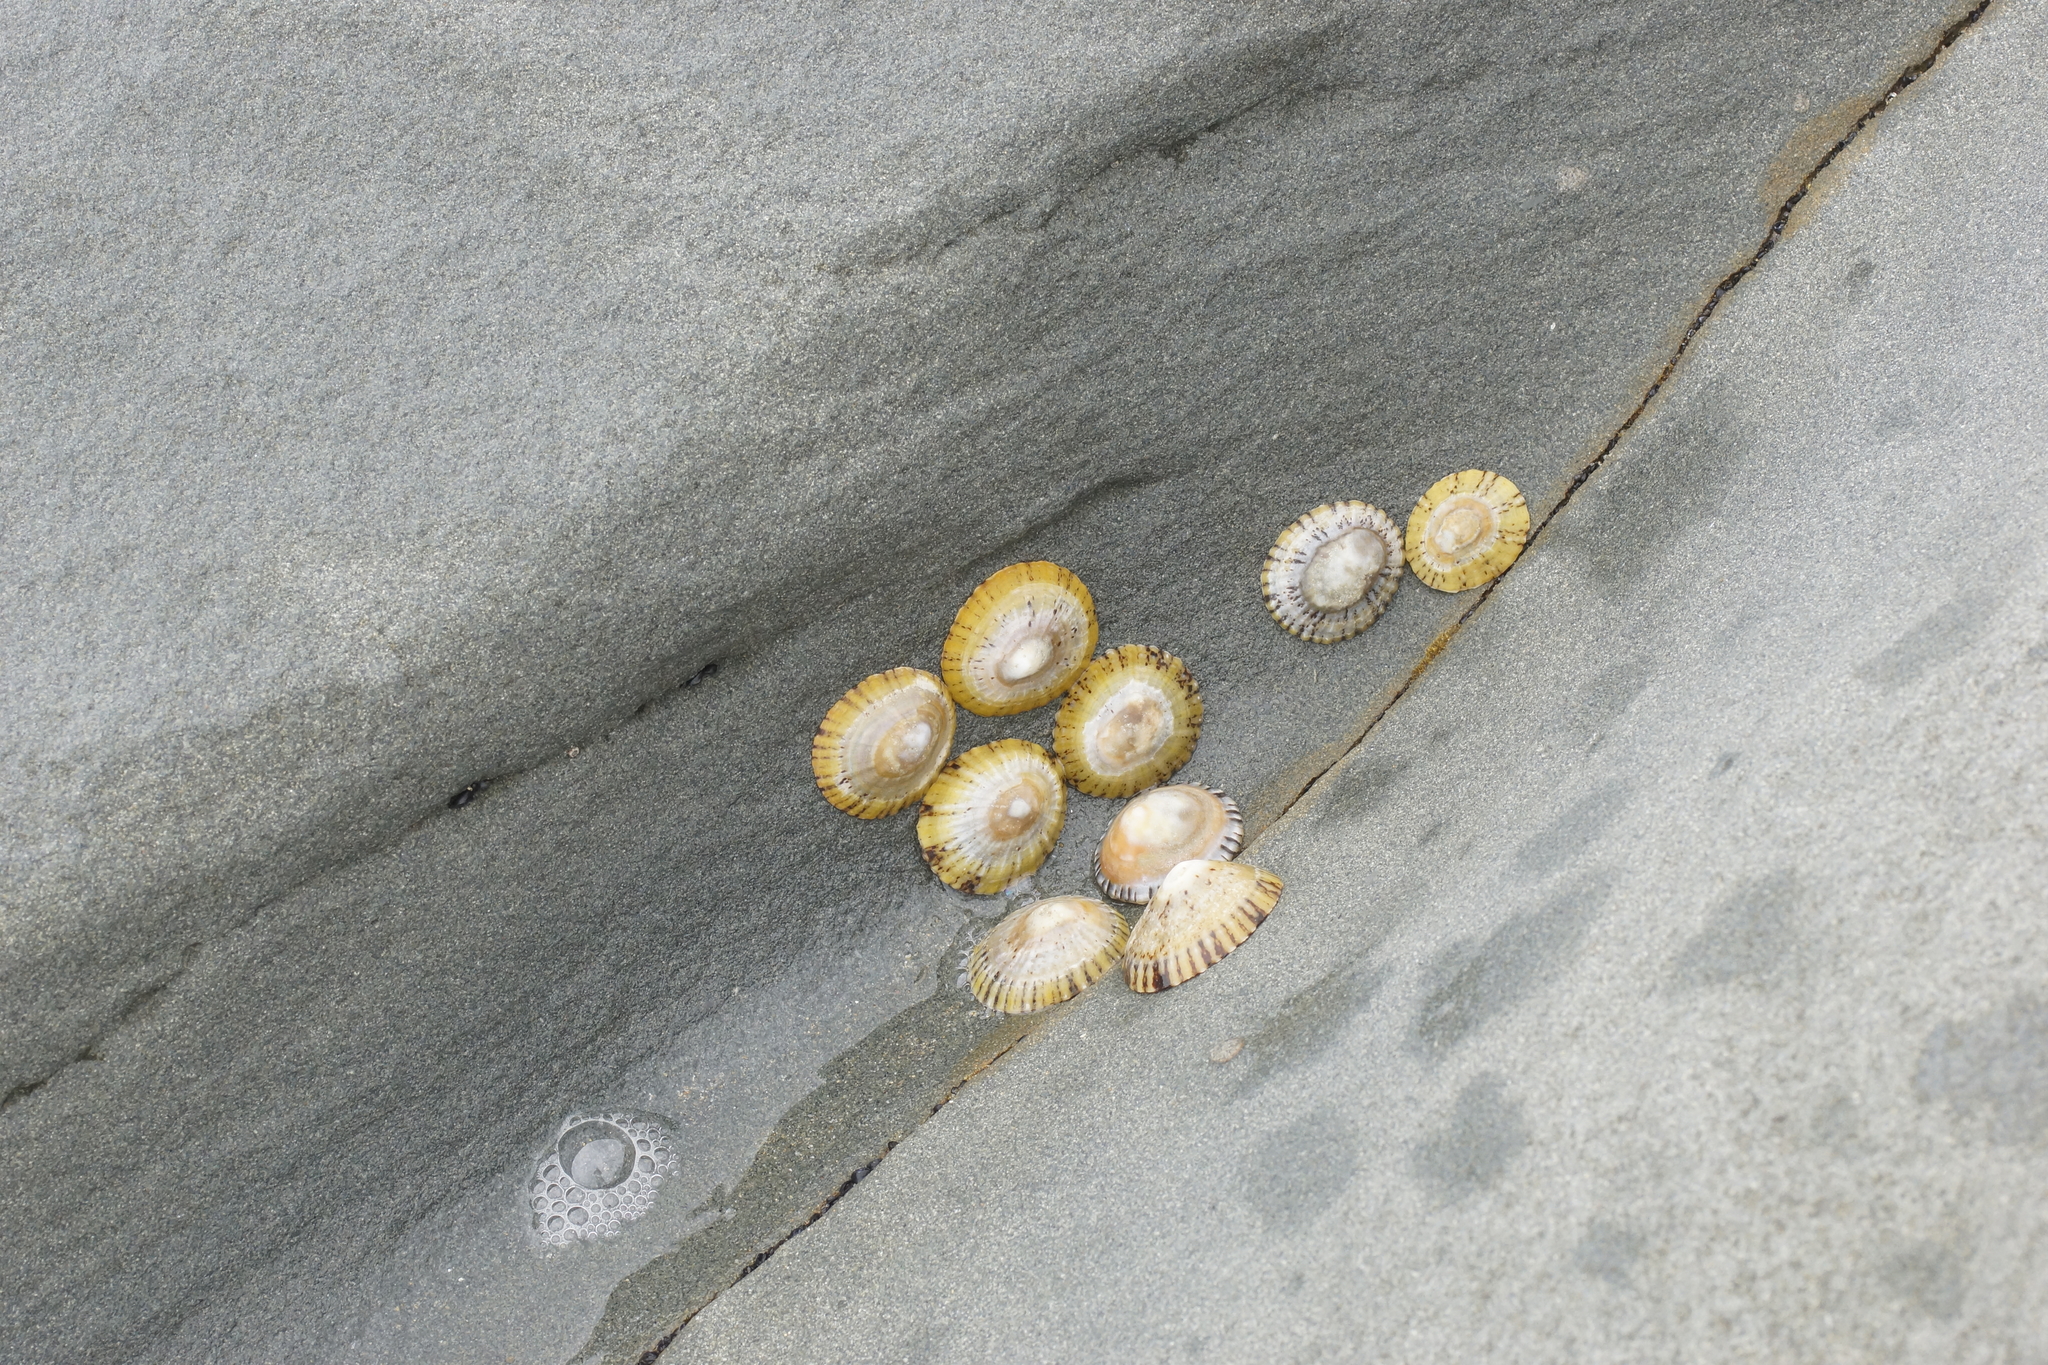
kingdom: Animalia
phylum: Mollusca
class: Gastropoda
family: Nacellidae
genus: Cellana
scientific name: Cellana tramoserica
